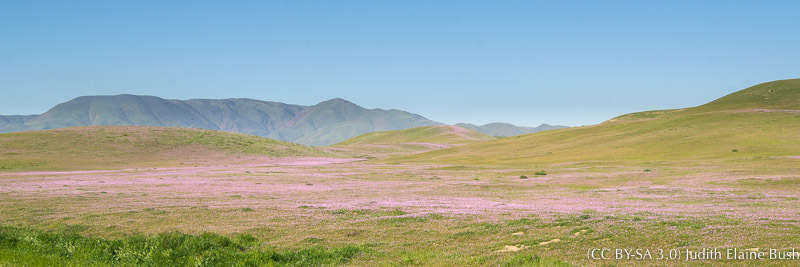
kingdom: Plantae
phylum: Tracheophyta
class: Magnoliopsida
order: Geraniales
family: Geraniaceae
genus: Erodium
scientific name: Erodium cicutarium
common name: Common stork's-bill
